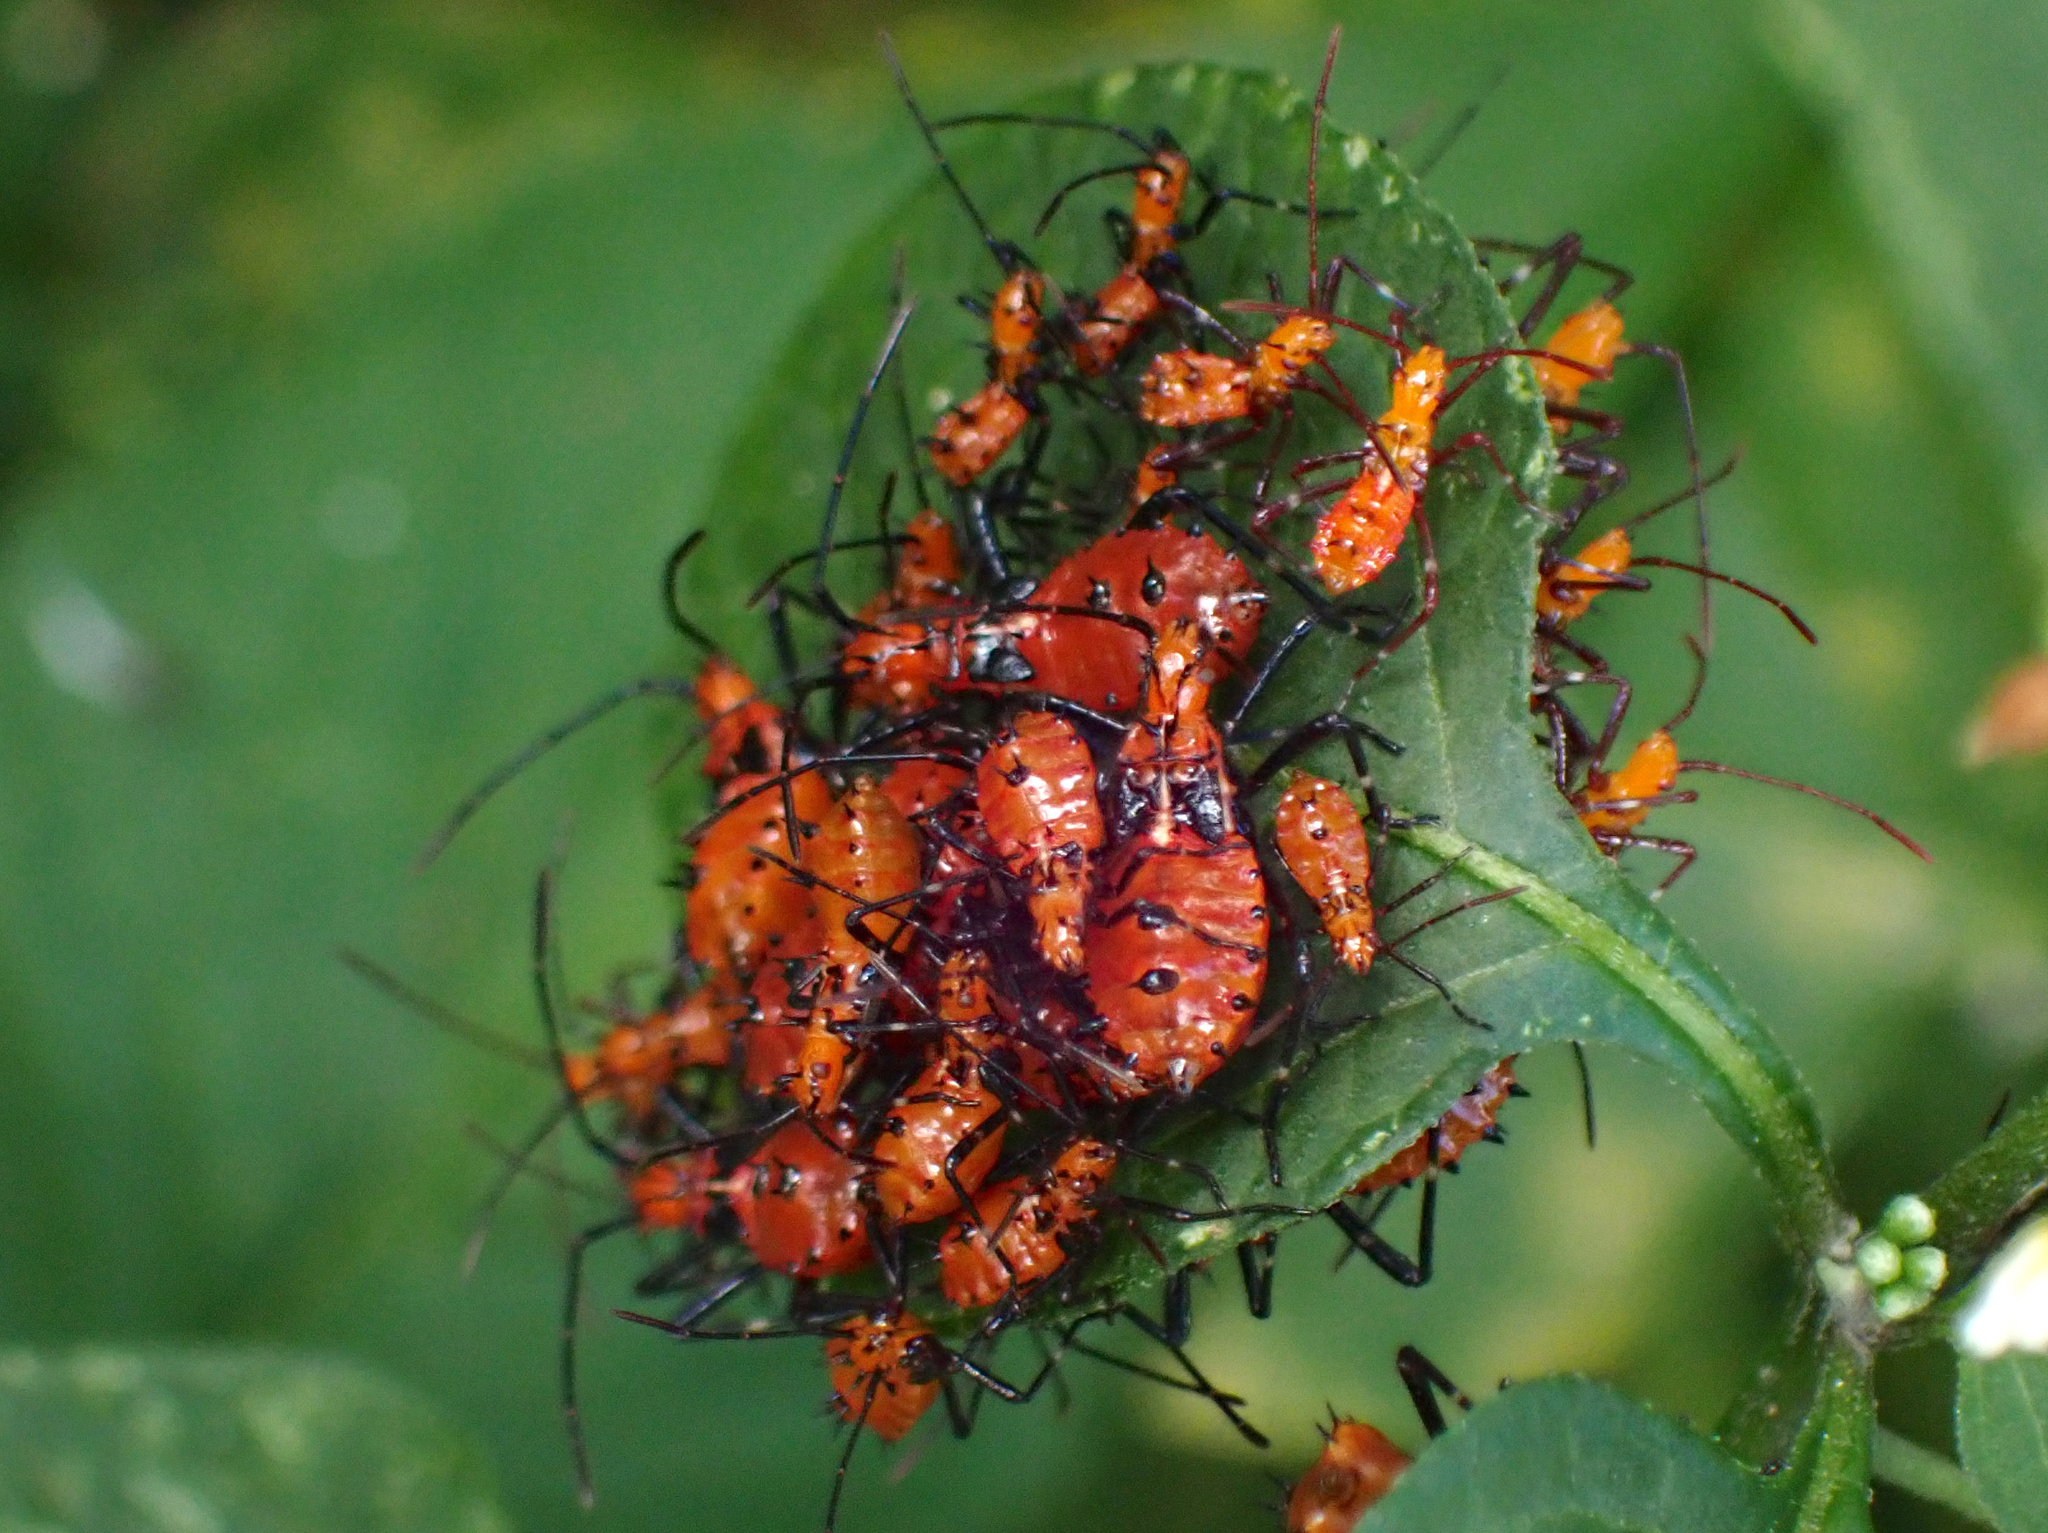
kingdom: Animalia
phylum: Arthropoda
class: Insecta
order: Hemiptera
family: Coreidae
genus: Phthiacnemia
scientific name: Phthiacnemia picta
